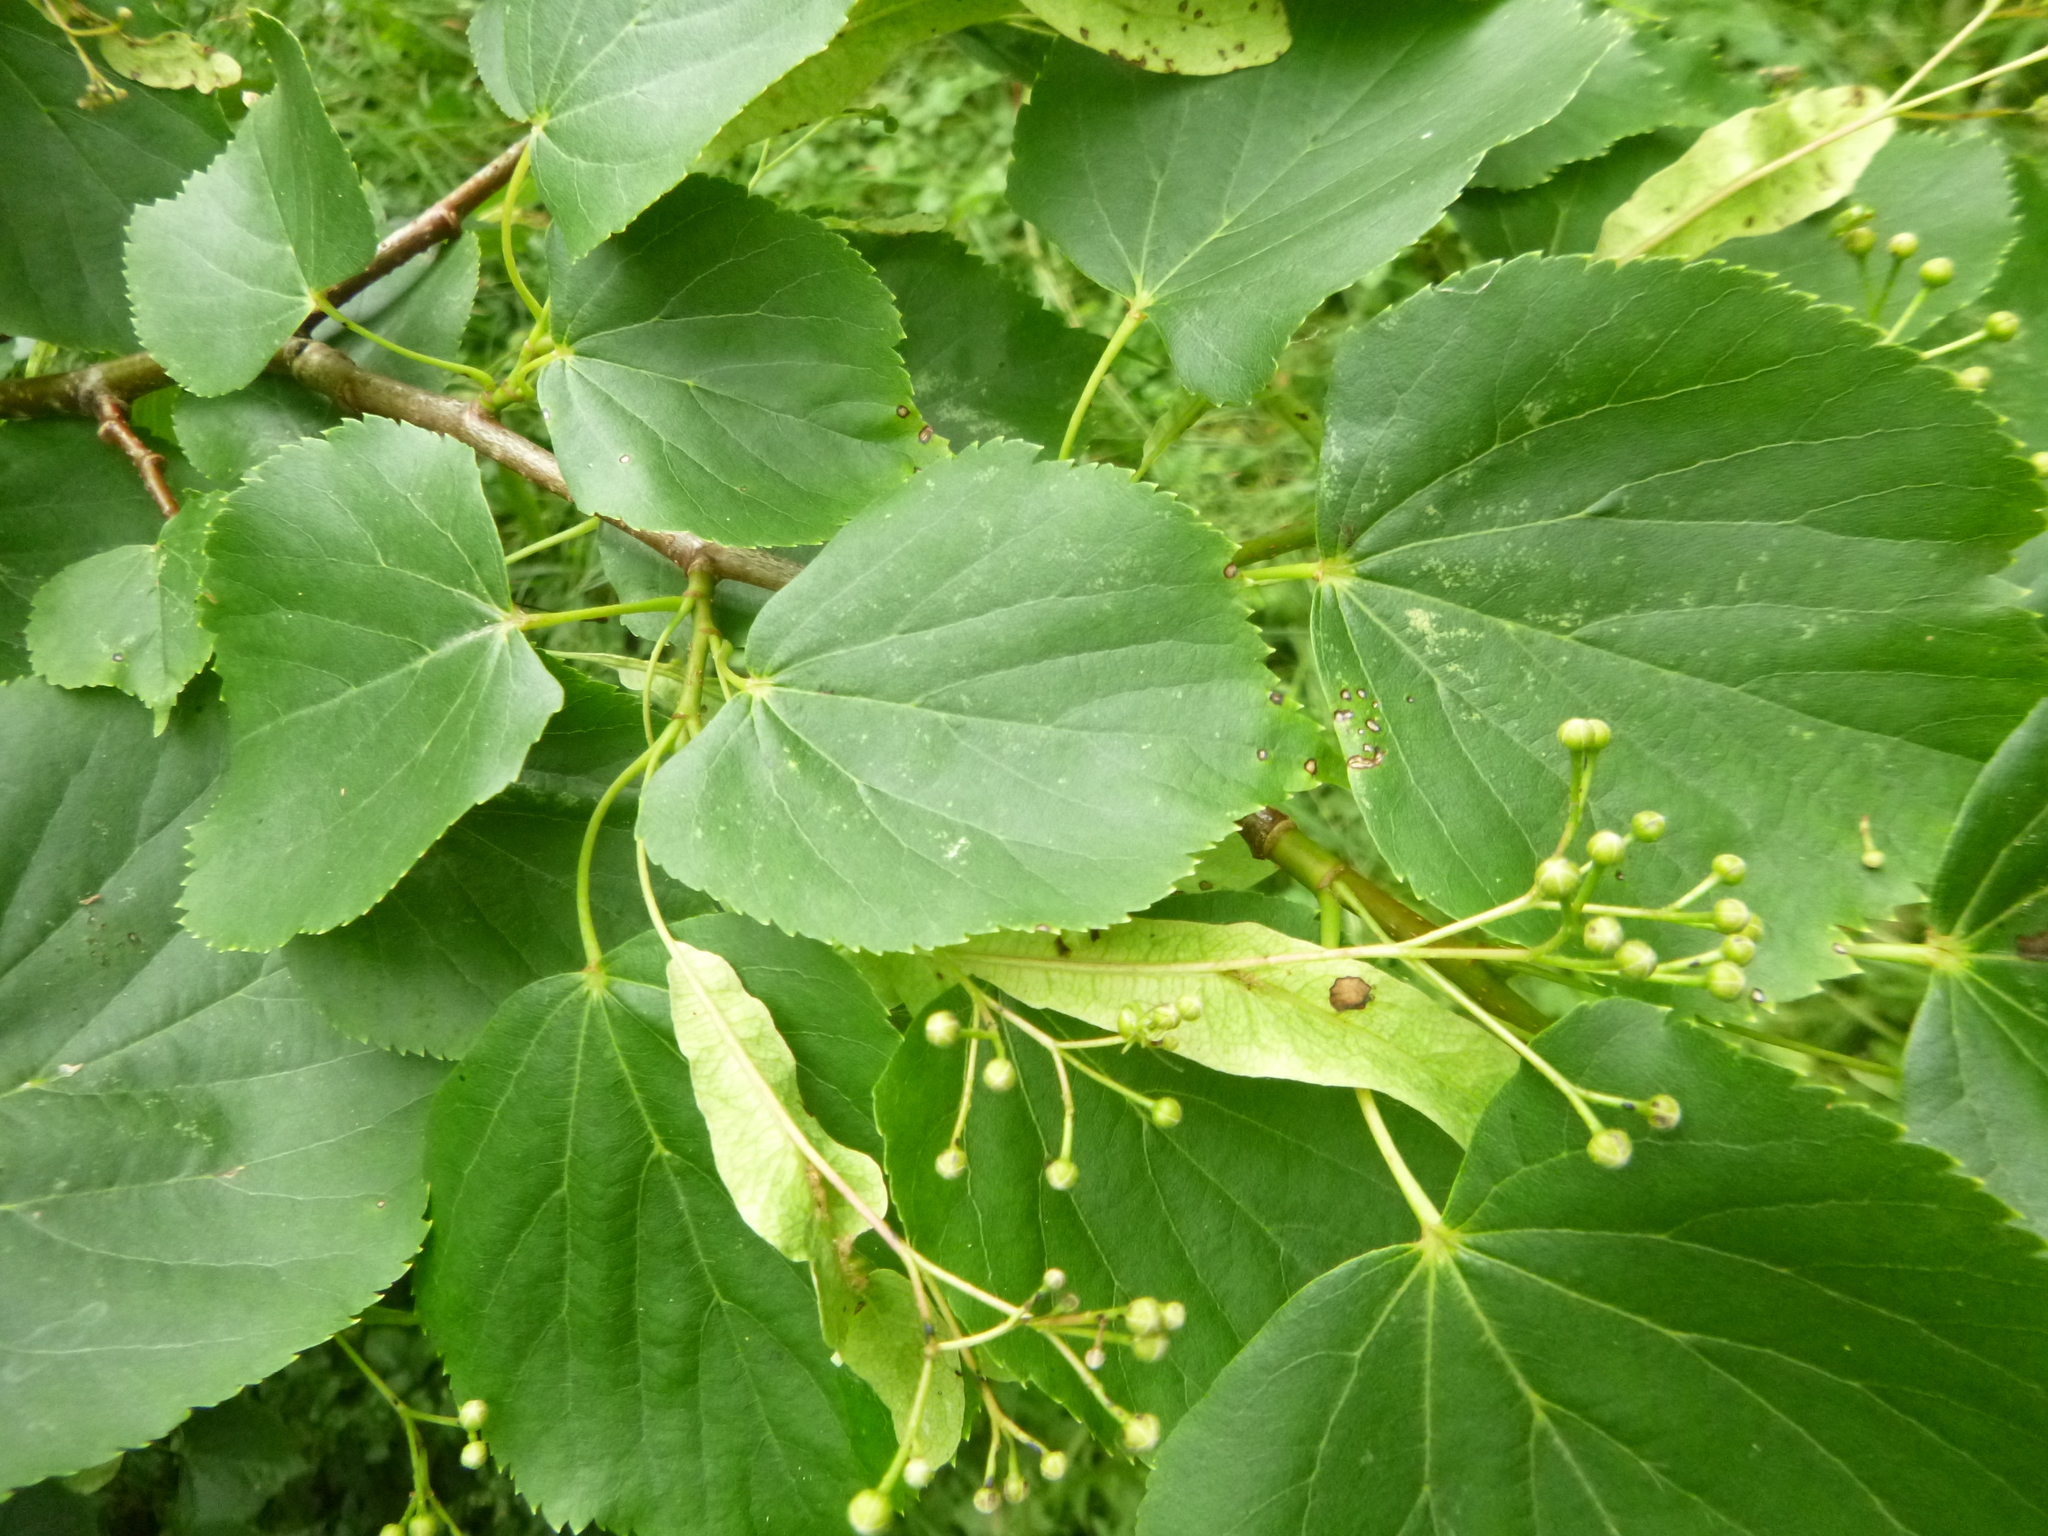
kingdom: Plantae
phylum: Tracheophyta
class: Magnoliopsida
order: Malvales
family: Malvaceae
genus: Tilia
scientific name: Tilia cordata
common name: Small-leaved lime
